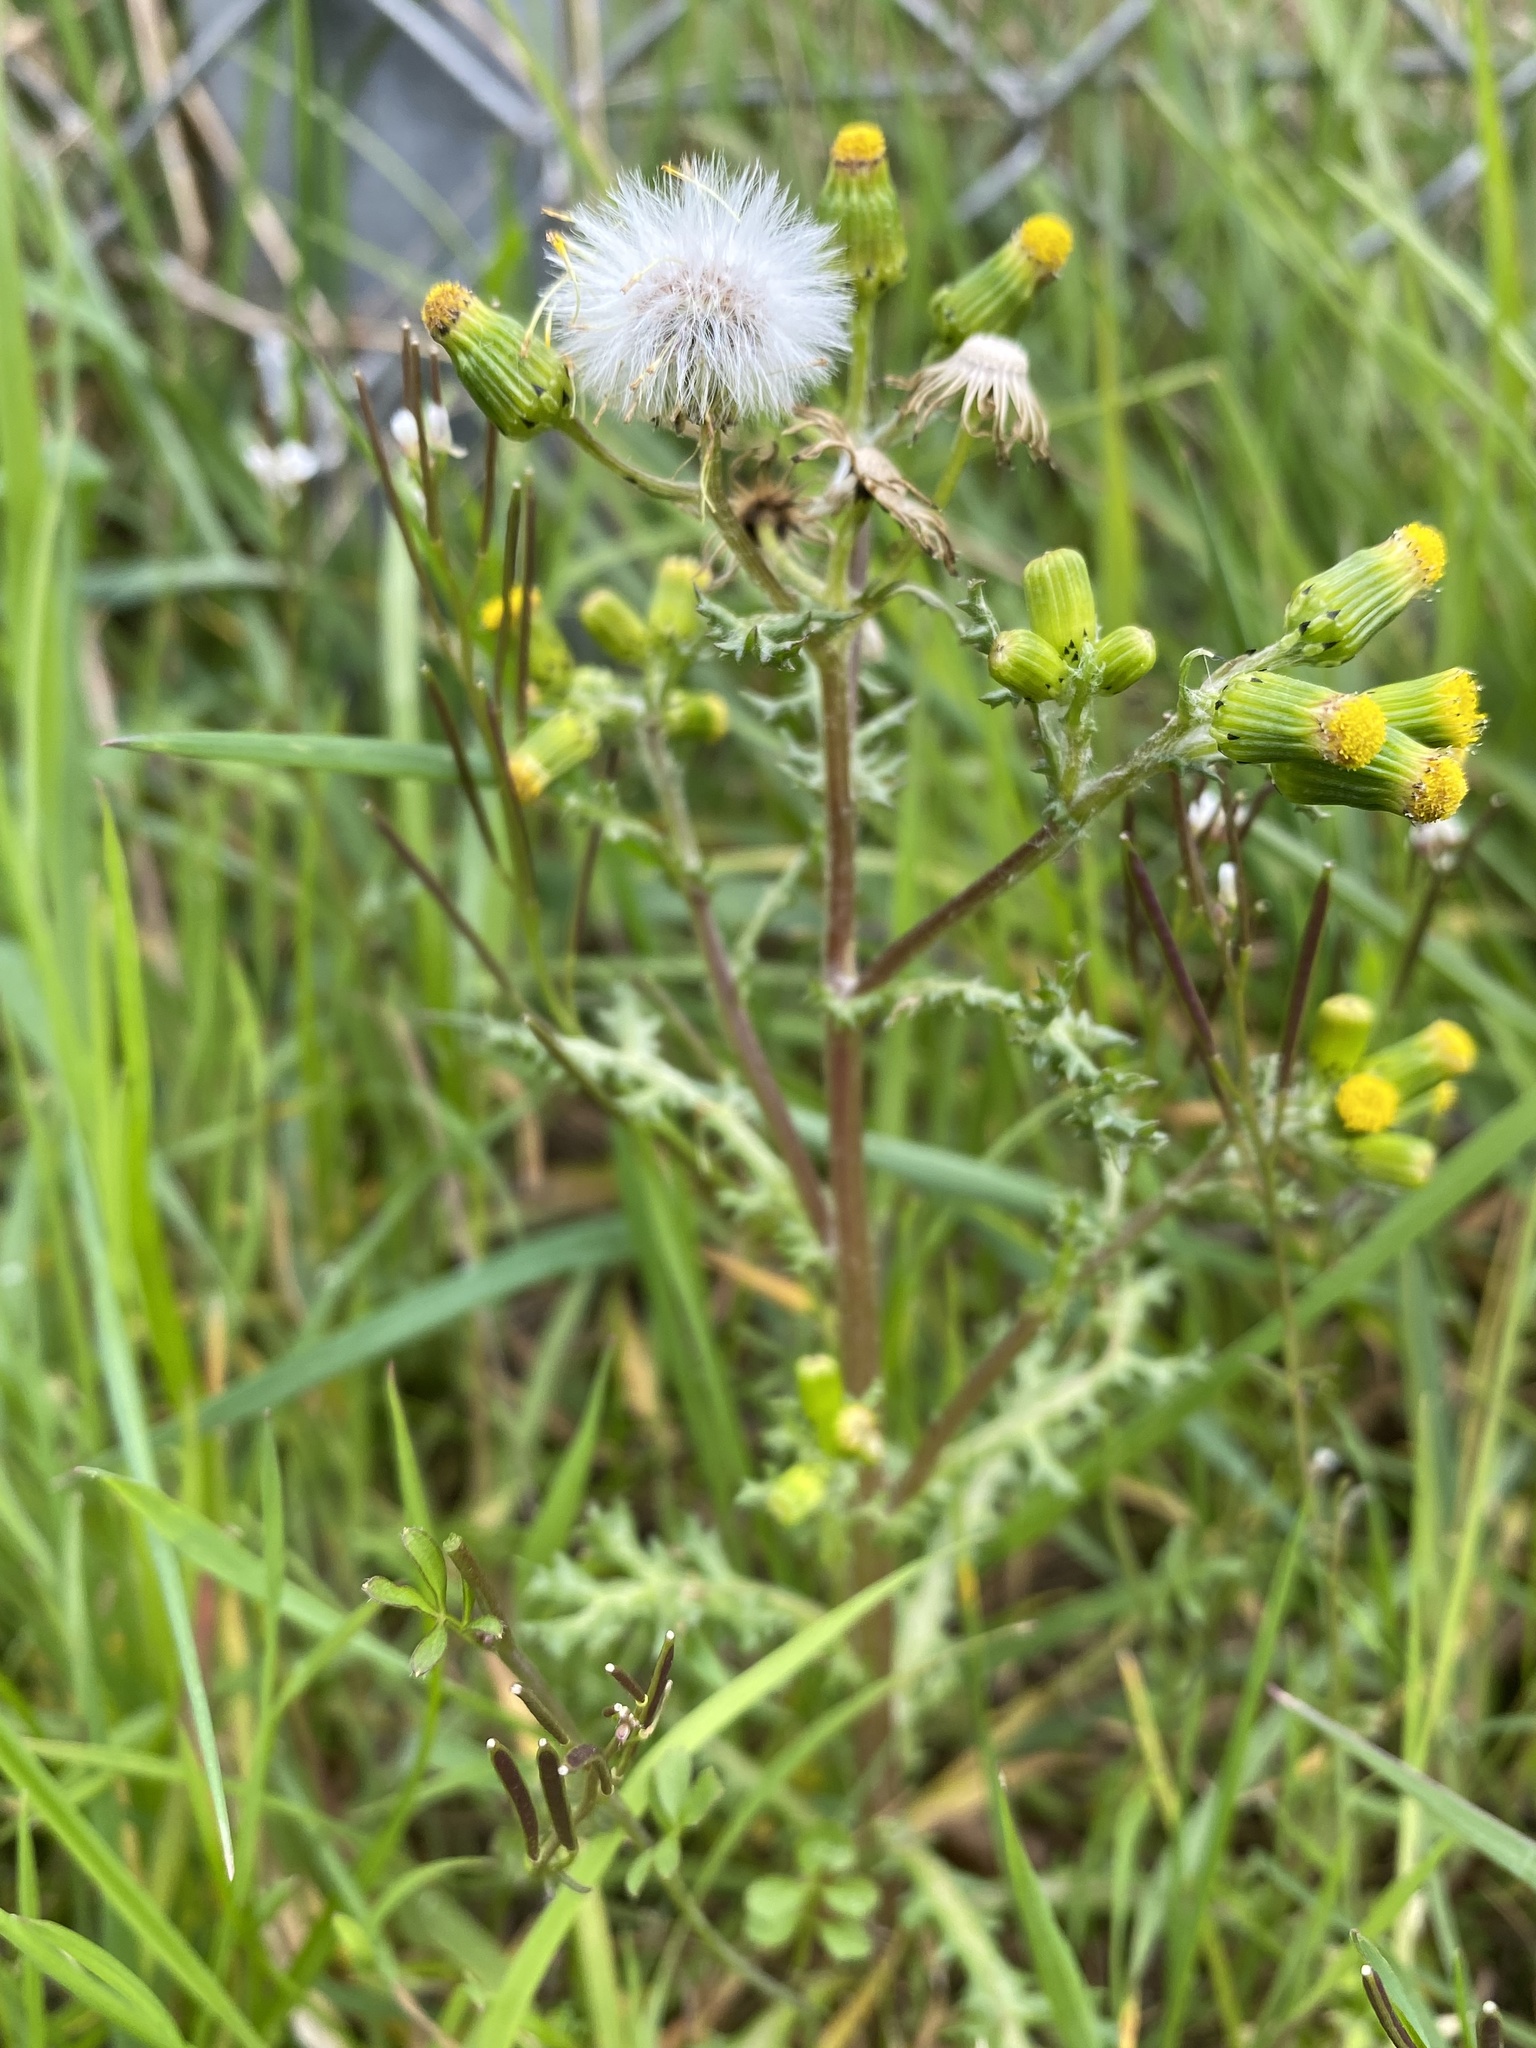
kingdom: Plantae
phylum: Tracheophyta
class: Magnoliopsida
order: Asterales
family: Asteraceae
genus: Senecio
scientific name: Senecio vulgaris
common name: Old-man-in-the-spring
